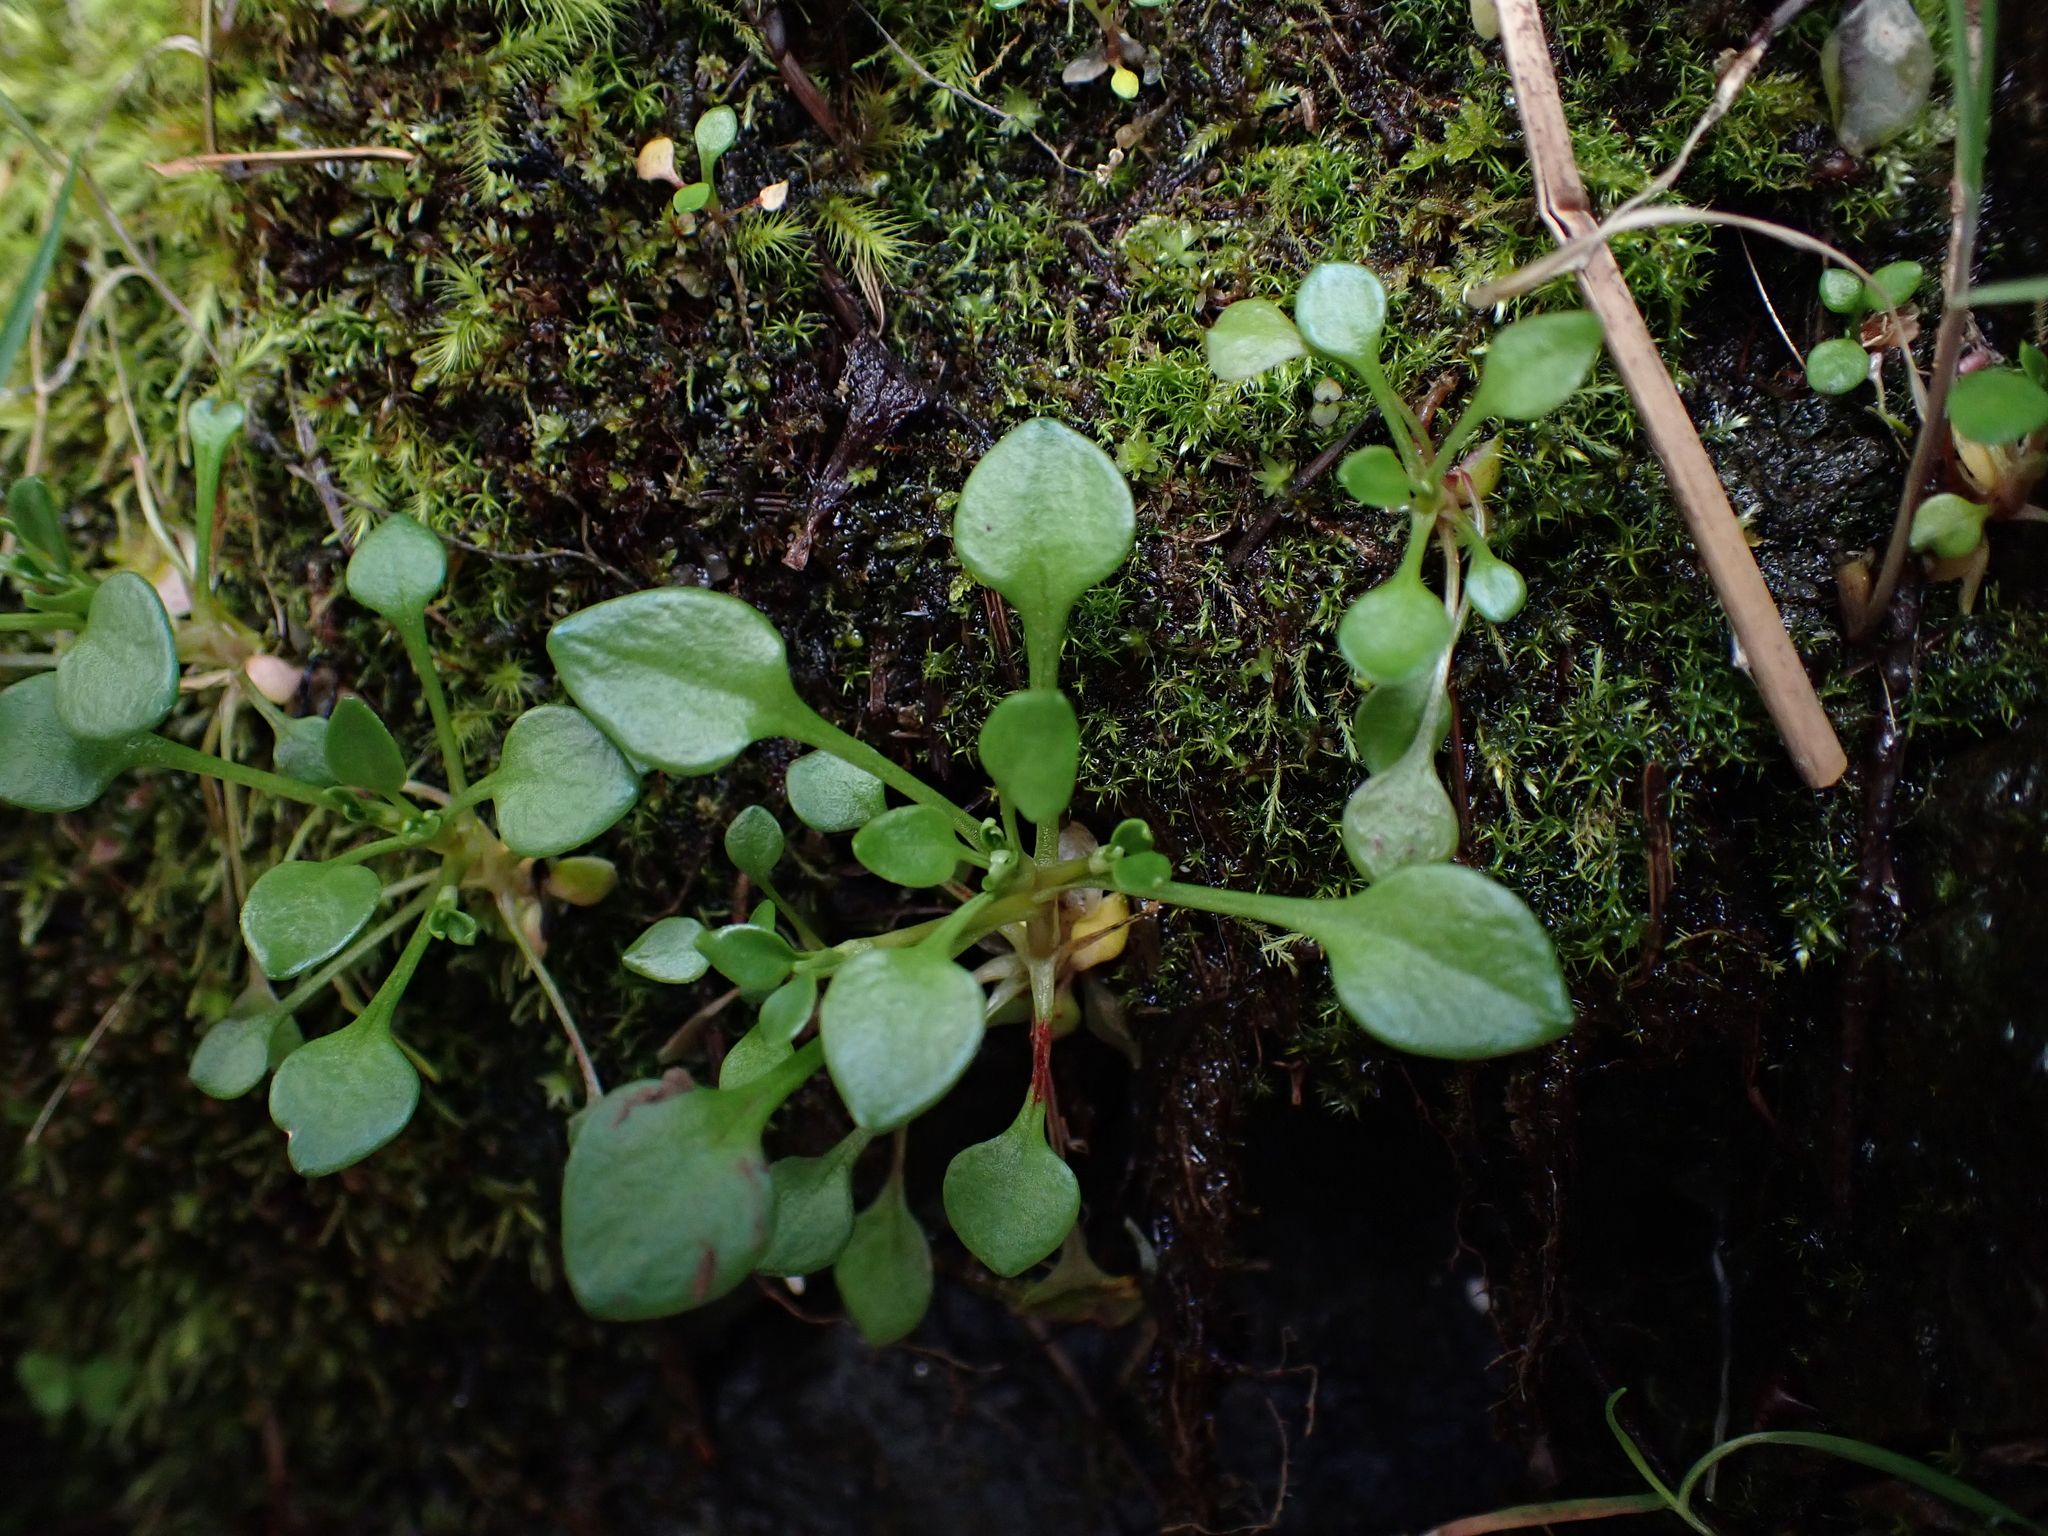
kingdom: Plantae
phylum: Tracheophyta
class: Magnoliopsida
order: Caryophyllales
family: Montiaceae
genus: Montia
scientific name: Montia parvifolia
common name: Small-leaved blinks
